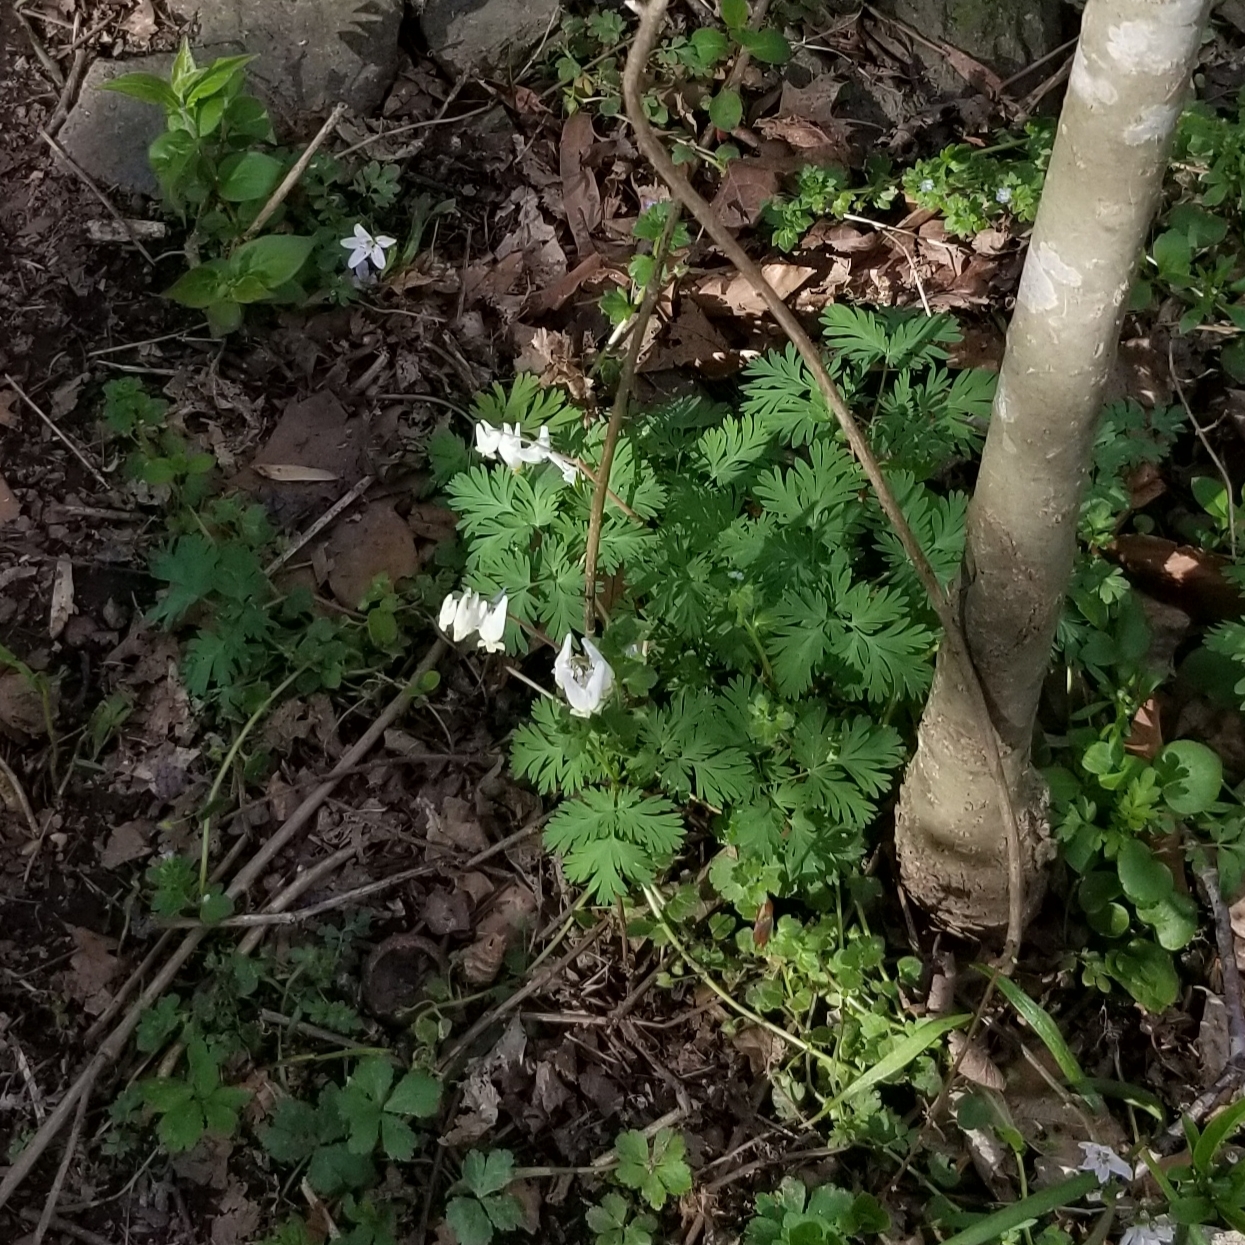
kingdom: Plantae
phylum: Tracheophyta
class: Magnoliopsida
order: Ranunculales
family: Papaveraceae
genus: Dicentra
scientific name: Dicentra cucullaria
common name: Dutchman's breeches
